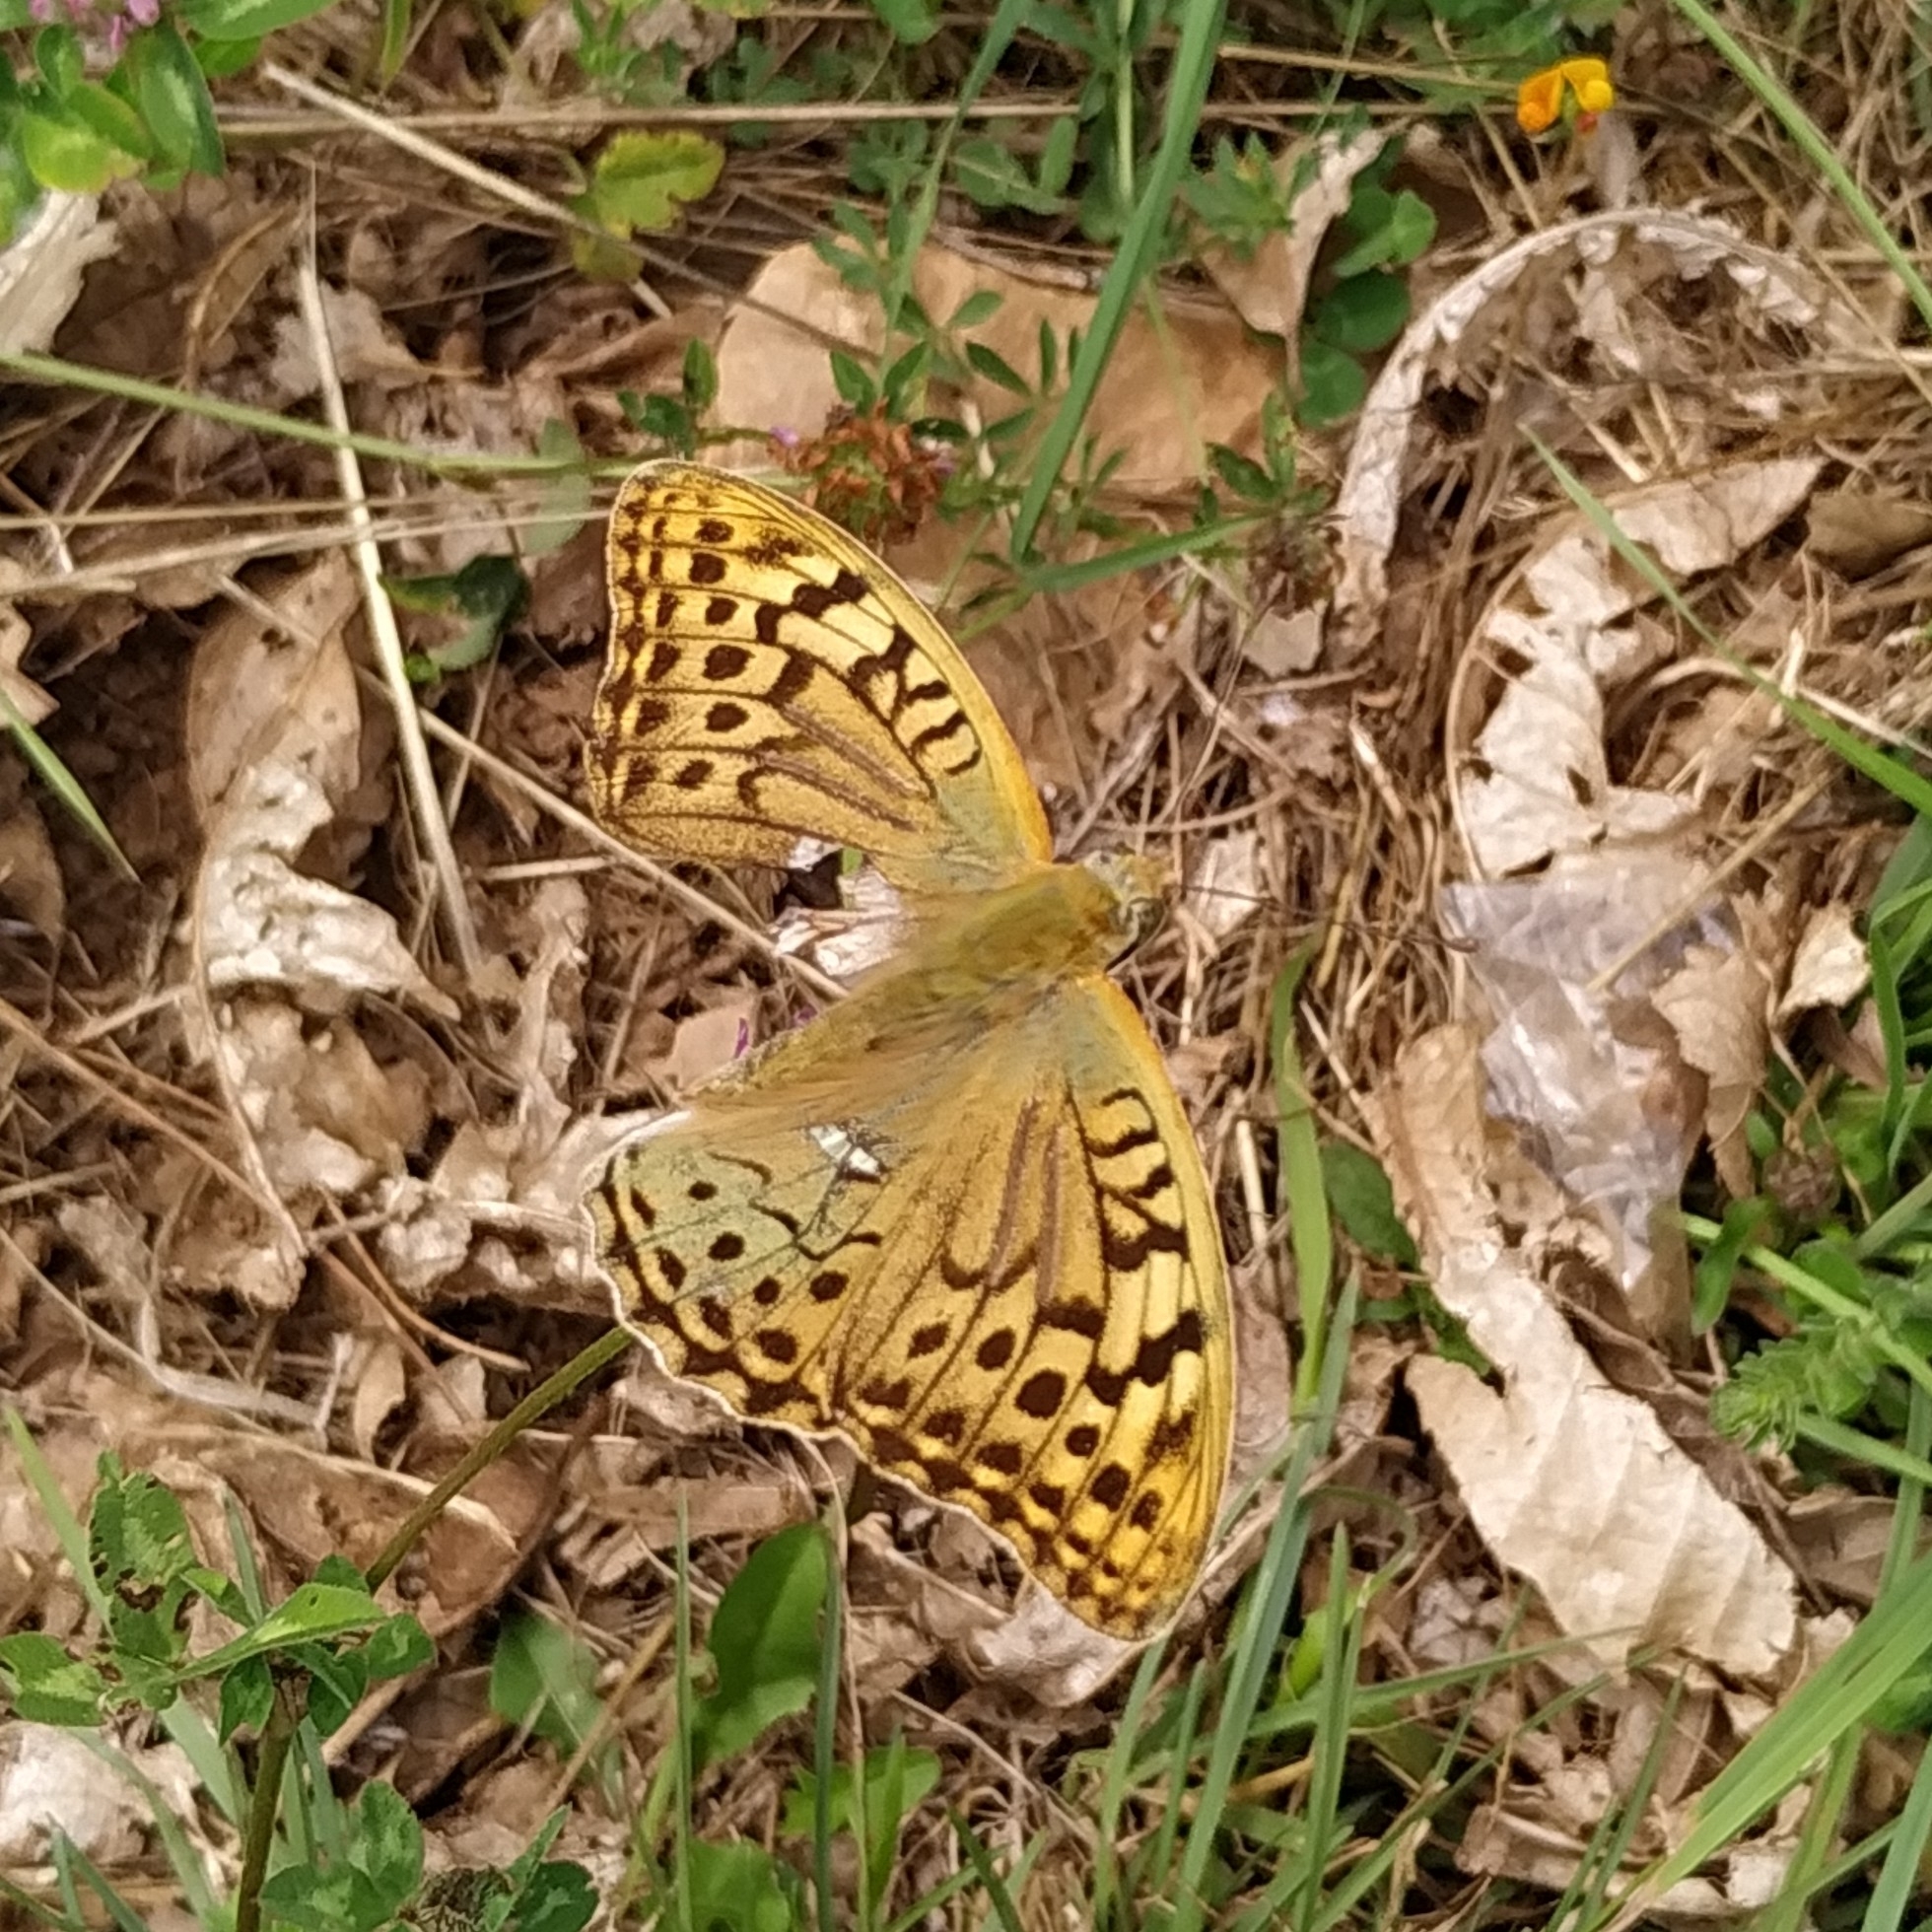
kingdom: Animalia
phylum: Arthropoda
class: Insecta
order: Lepidoptera
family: Nymphalidae
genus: Damora
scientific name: Damora pandora
